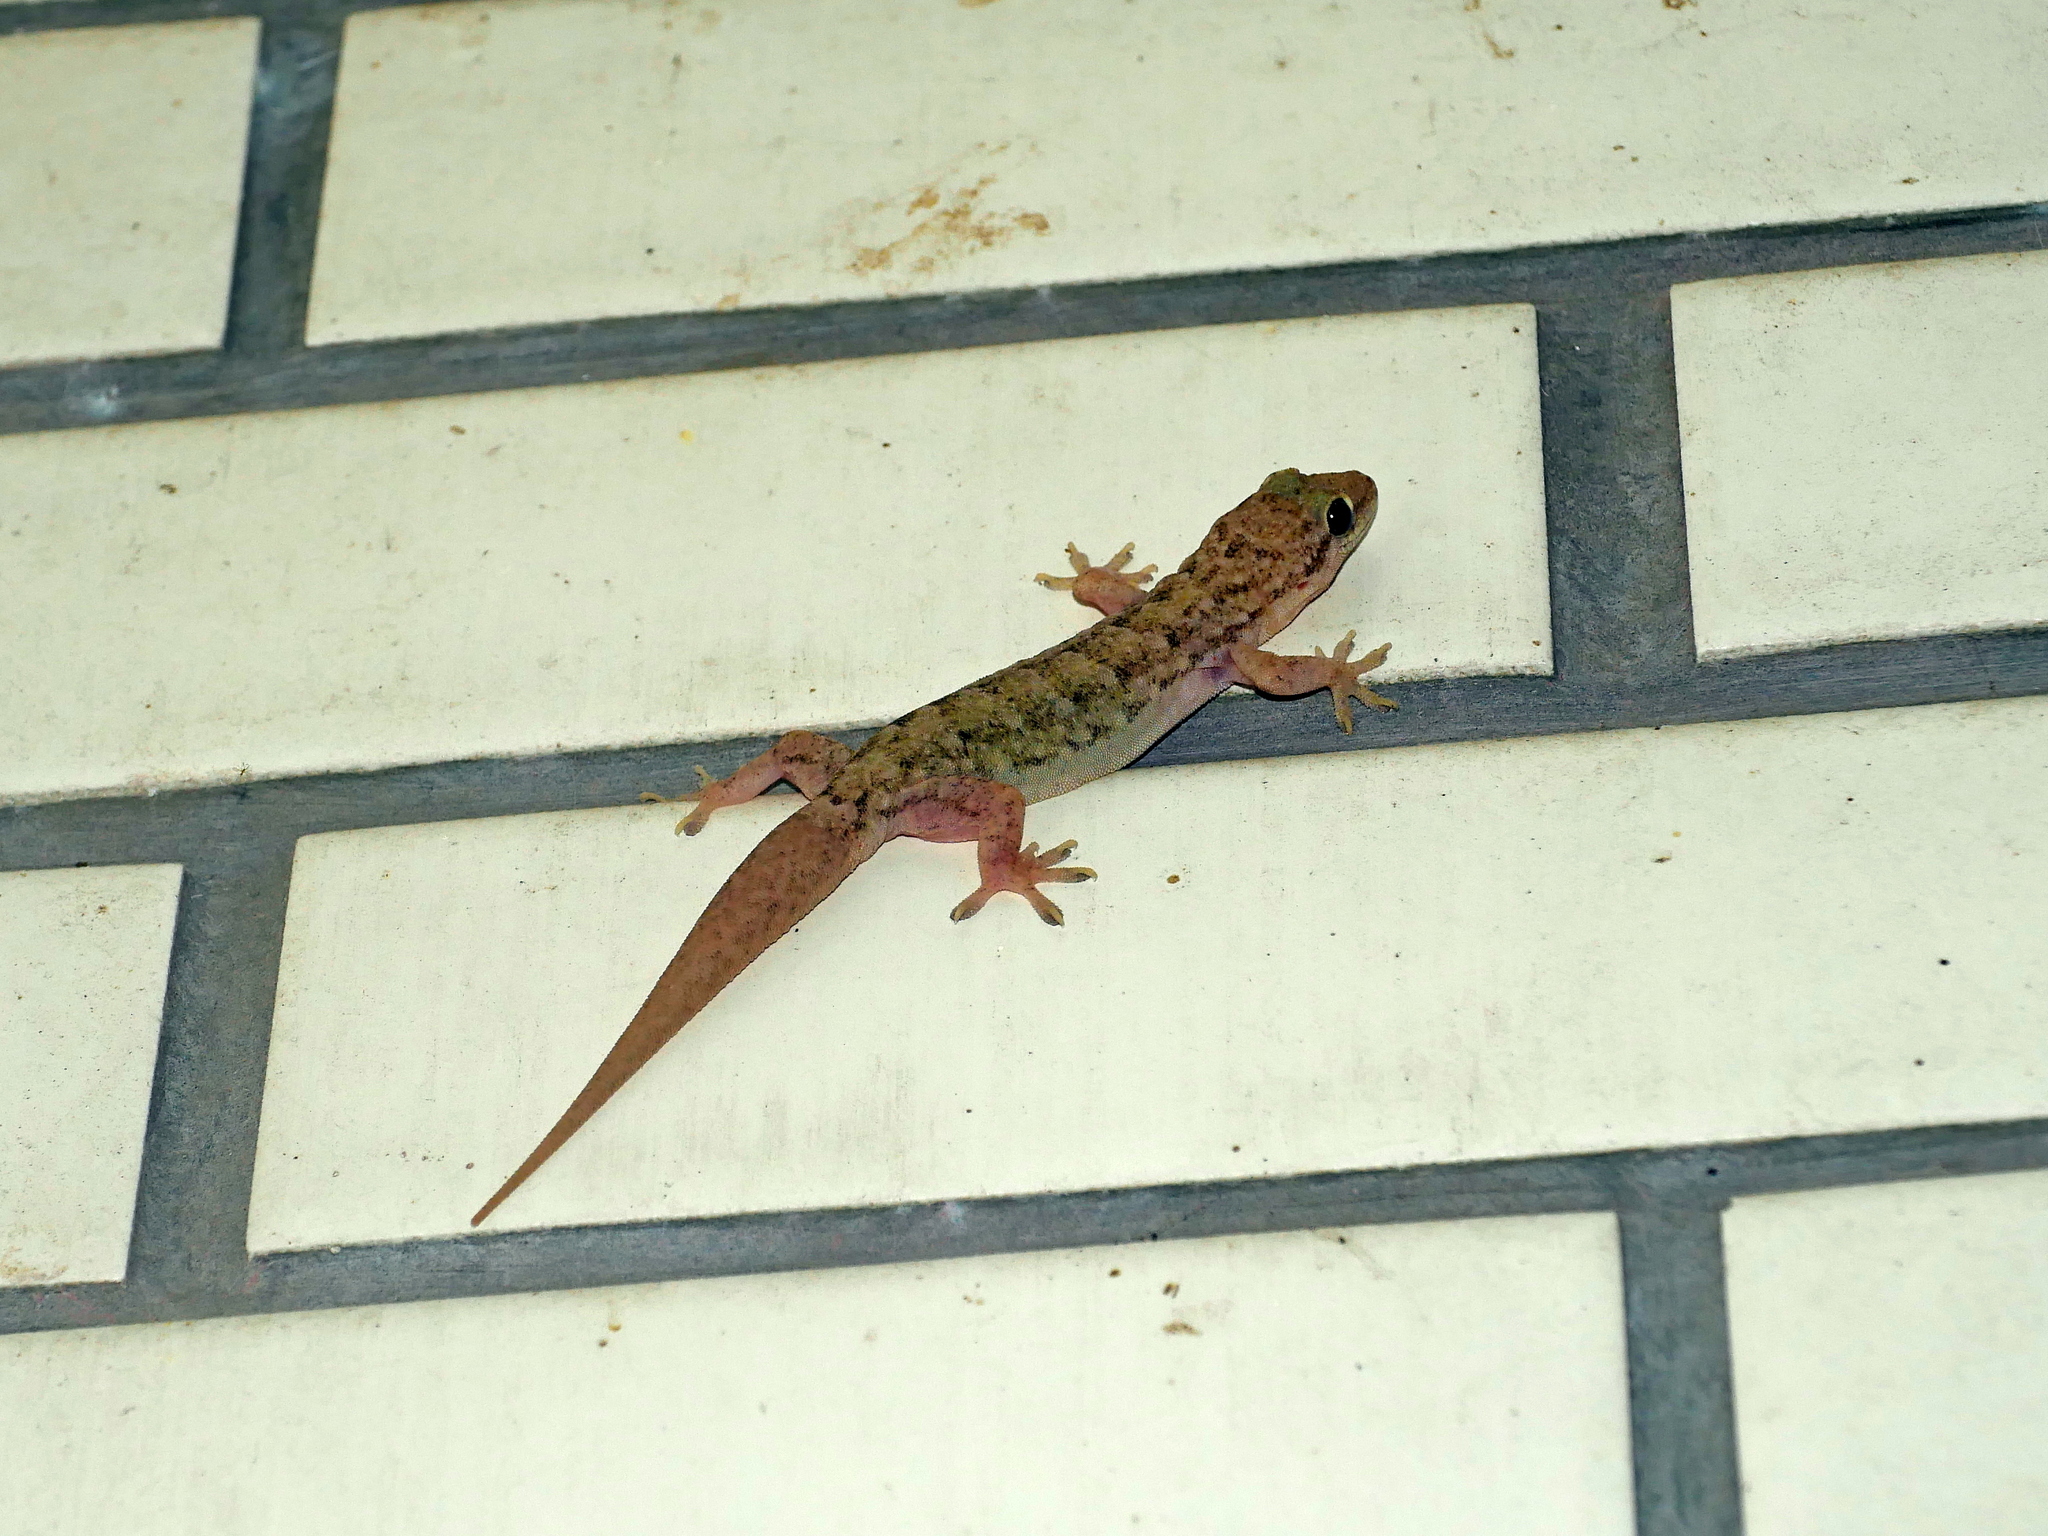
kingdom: Animalia
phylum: Chordata
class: Squamata
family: Gekkonidae
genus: Hemidactylus
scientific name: Hemidactylus bowringii
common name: Oriental leaf-toed gecko
